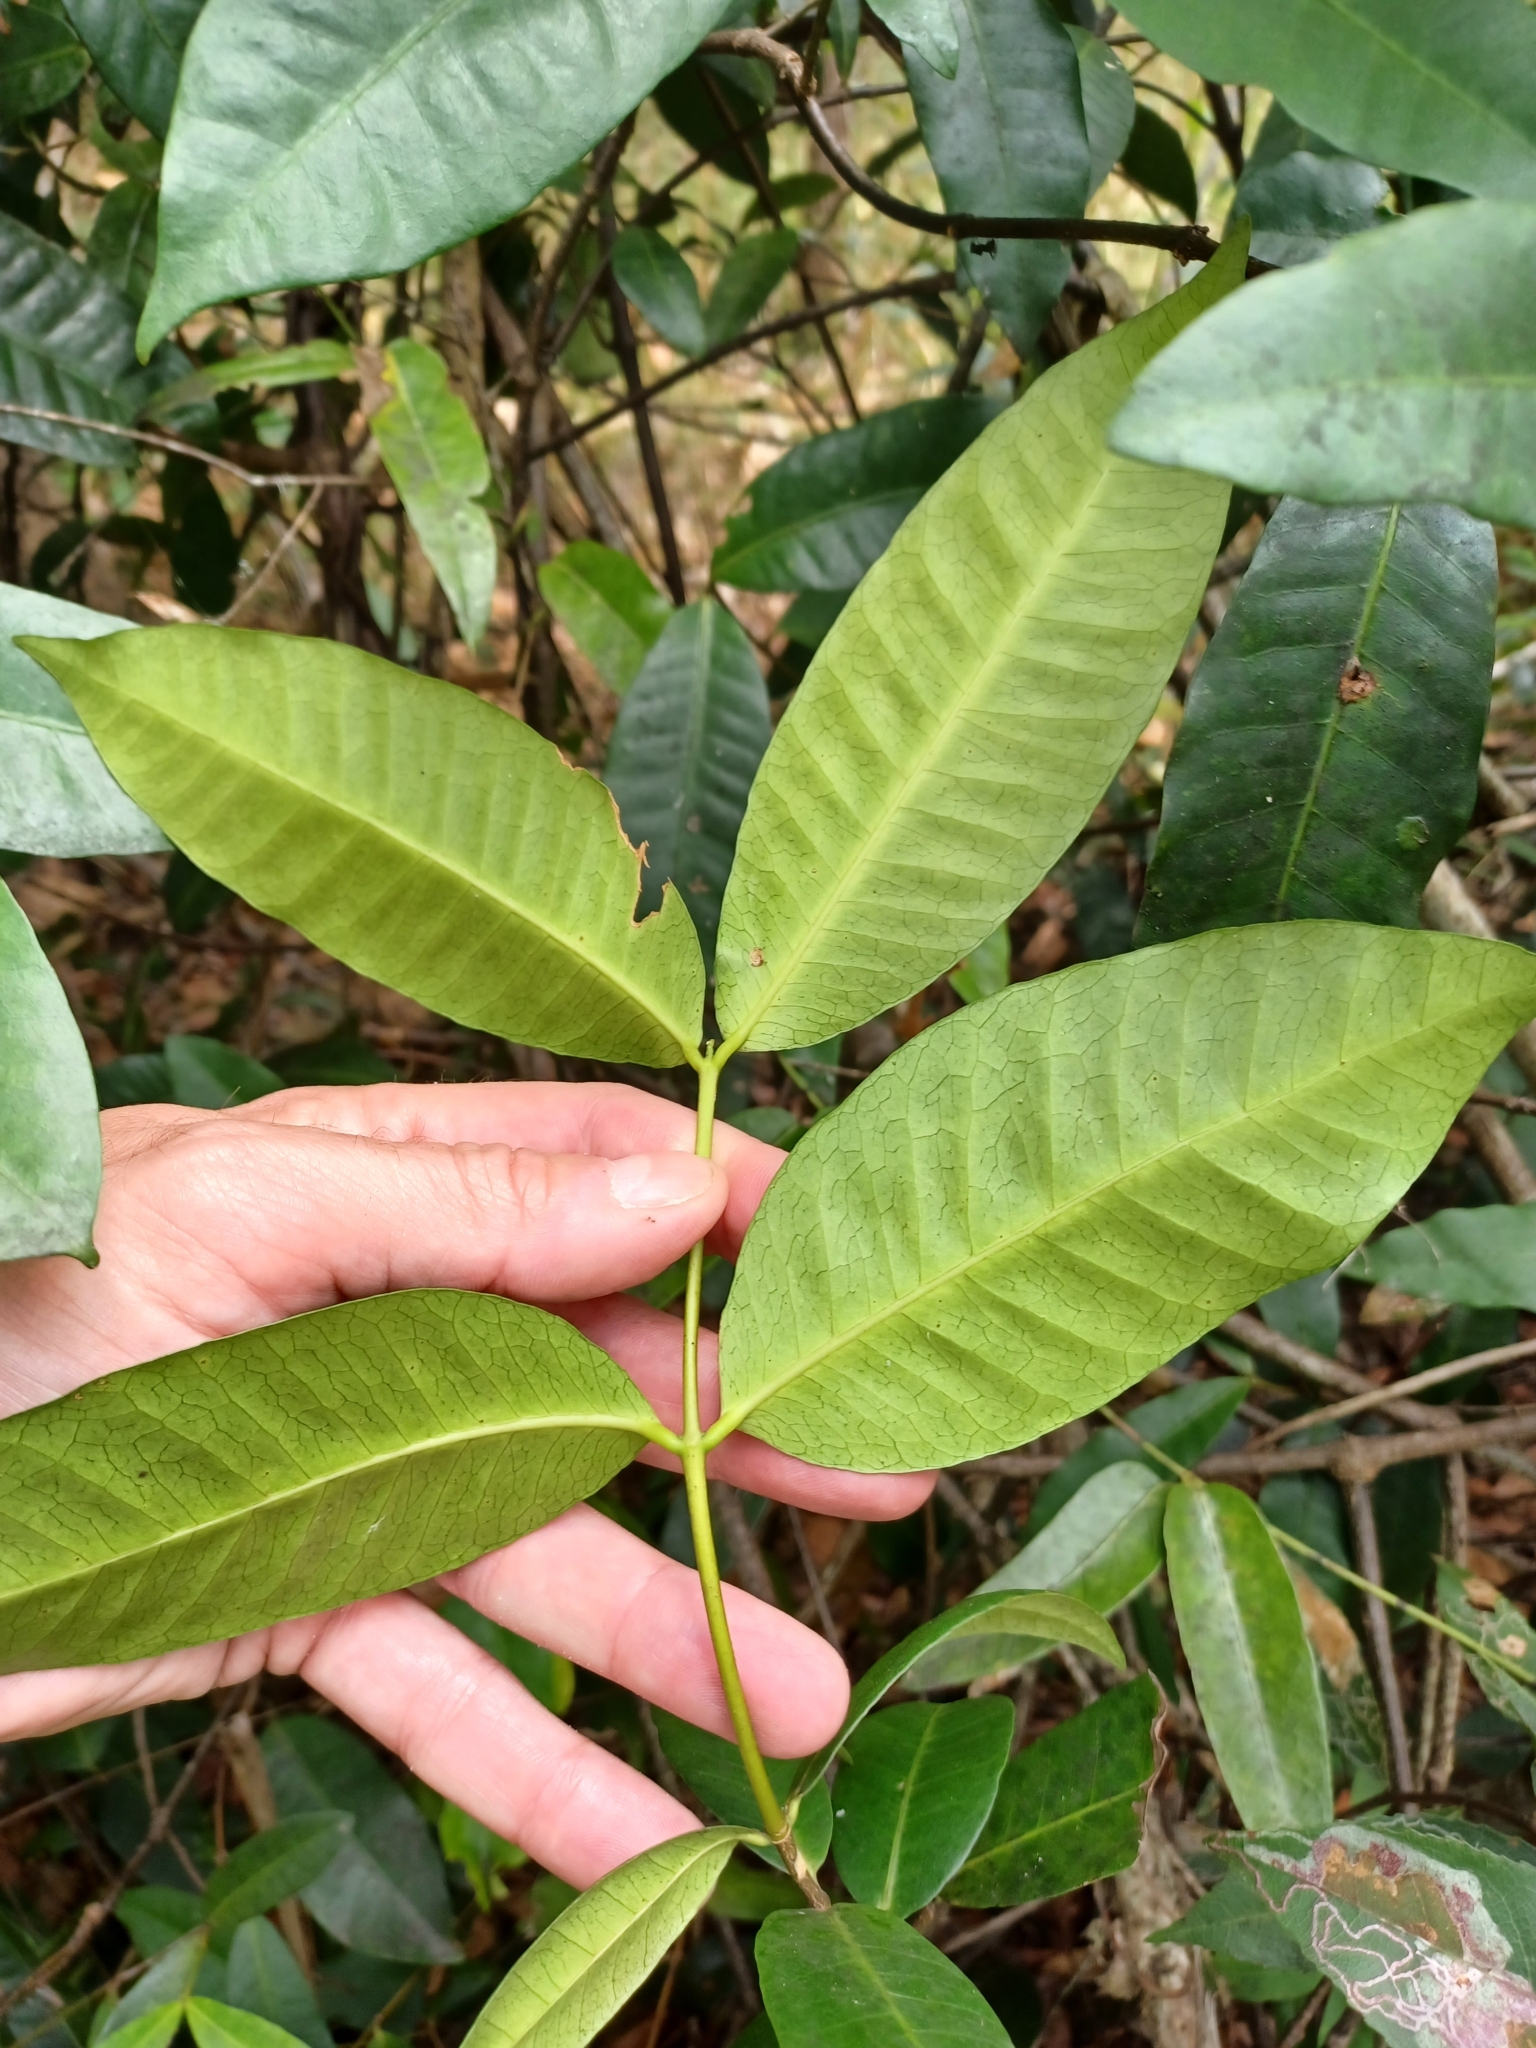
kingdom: Plantae
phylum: Tracheophyta
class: Magnoliopsida
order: Gentianales
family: Apocynaceae
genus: Melodinus
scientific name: Melodinus australis
